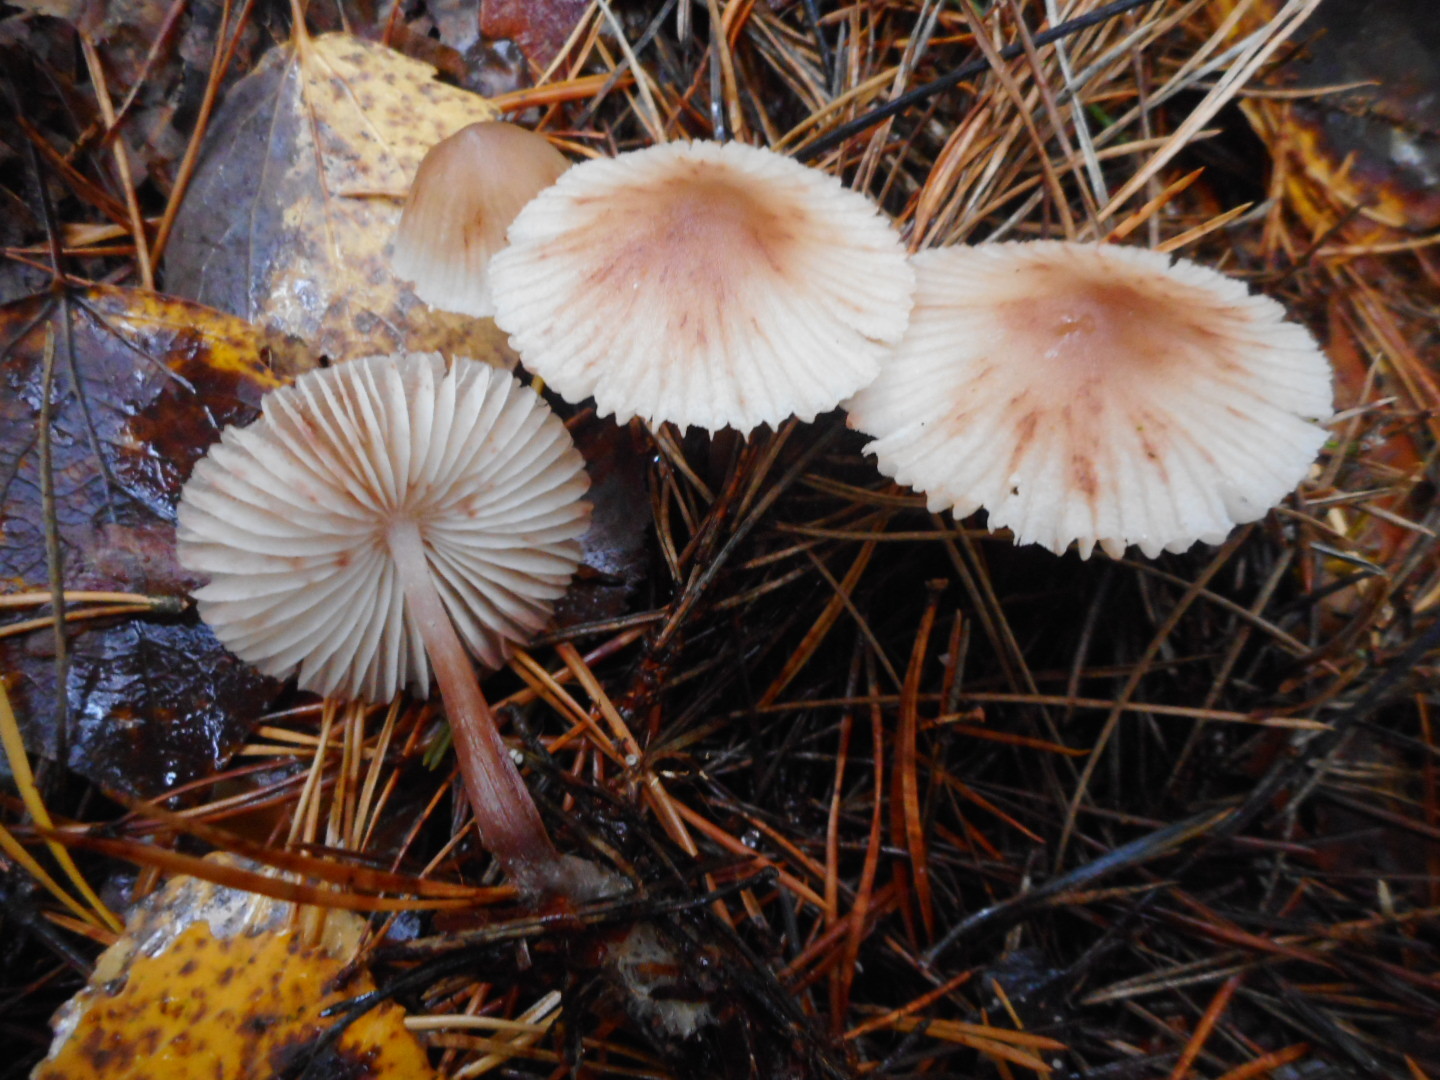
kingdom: Fungi
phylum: Basidiomycota
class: Agaricomycetes
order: Agaricales
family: Mycenaceae
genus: Mycena
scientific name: Mycena zephirus
